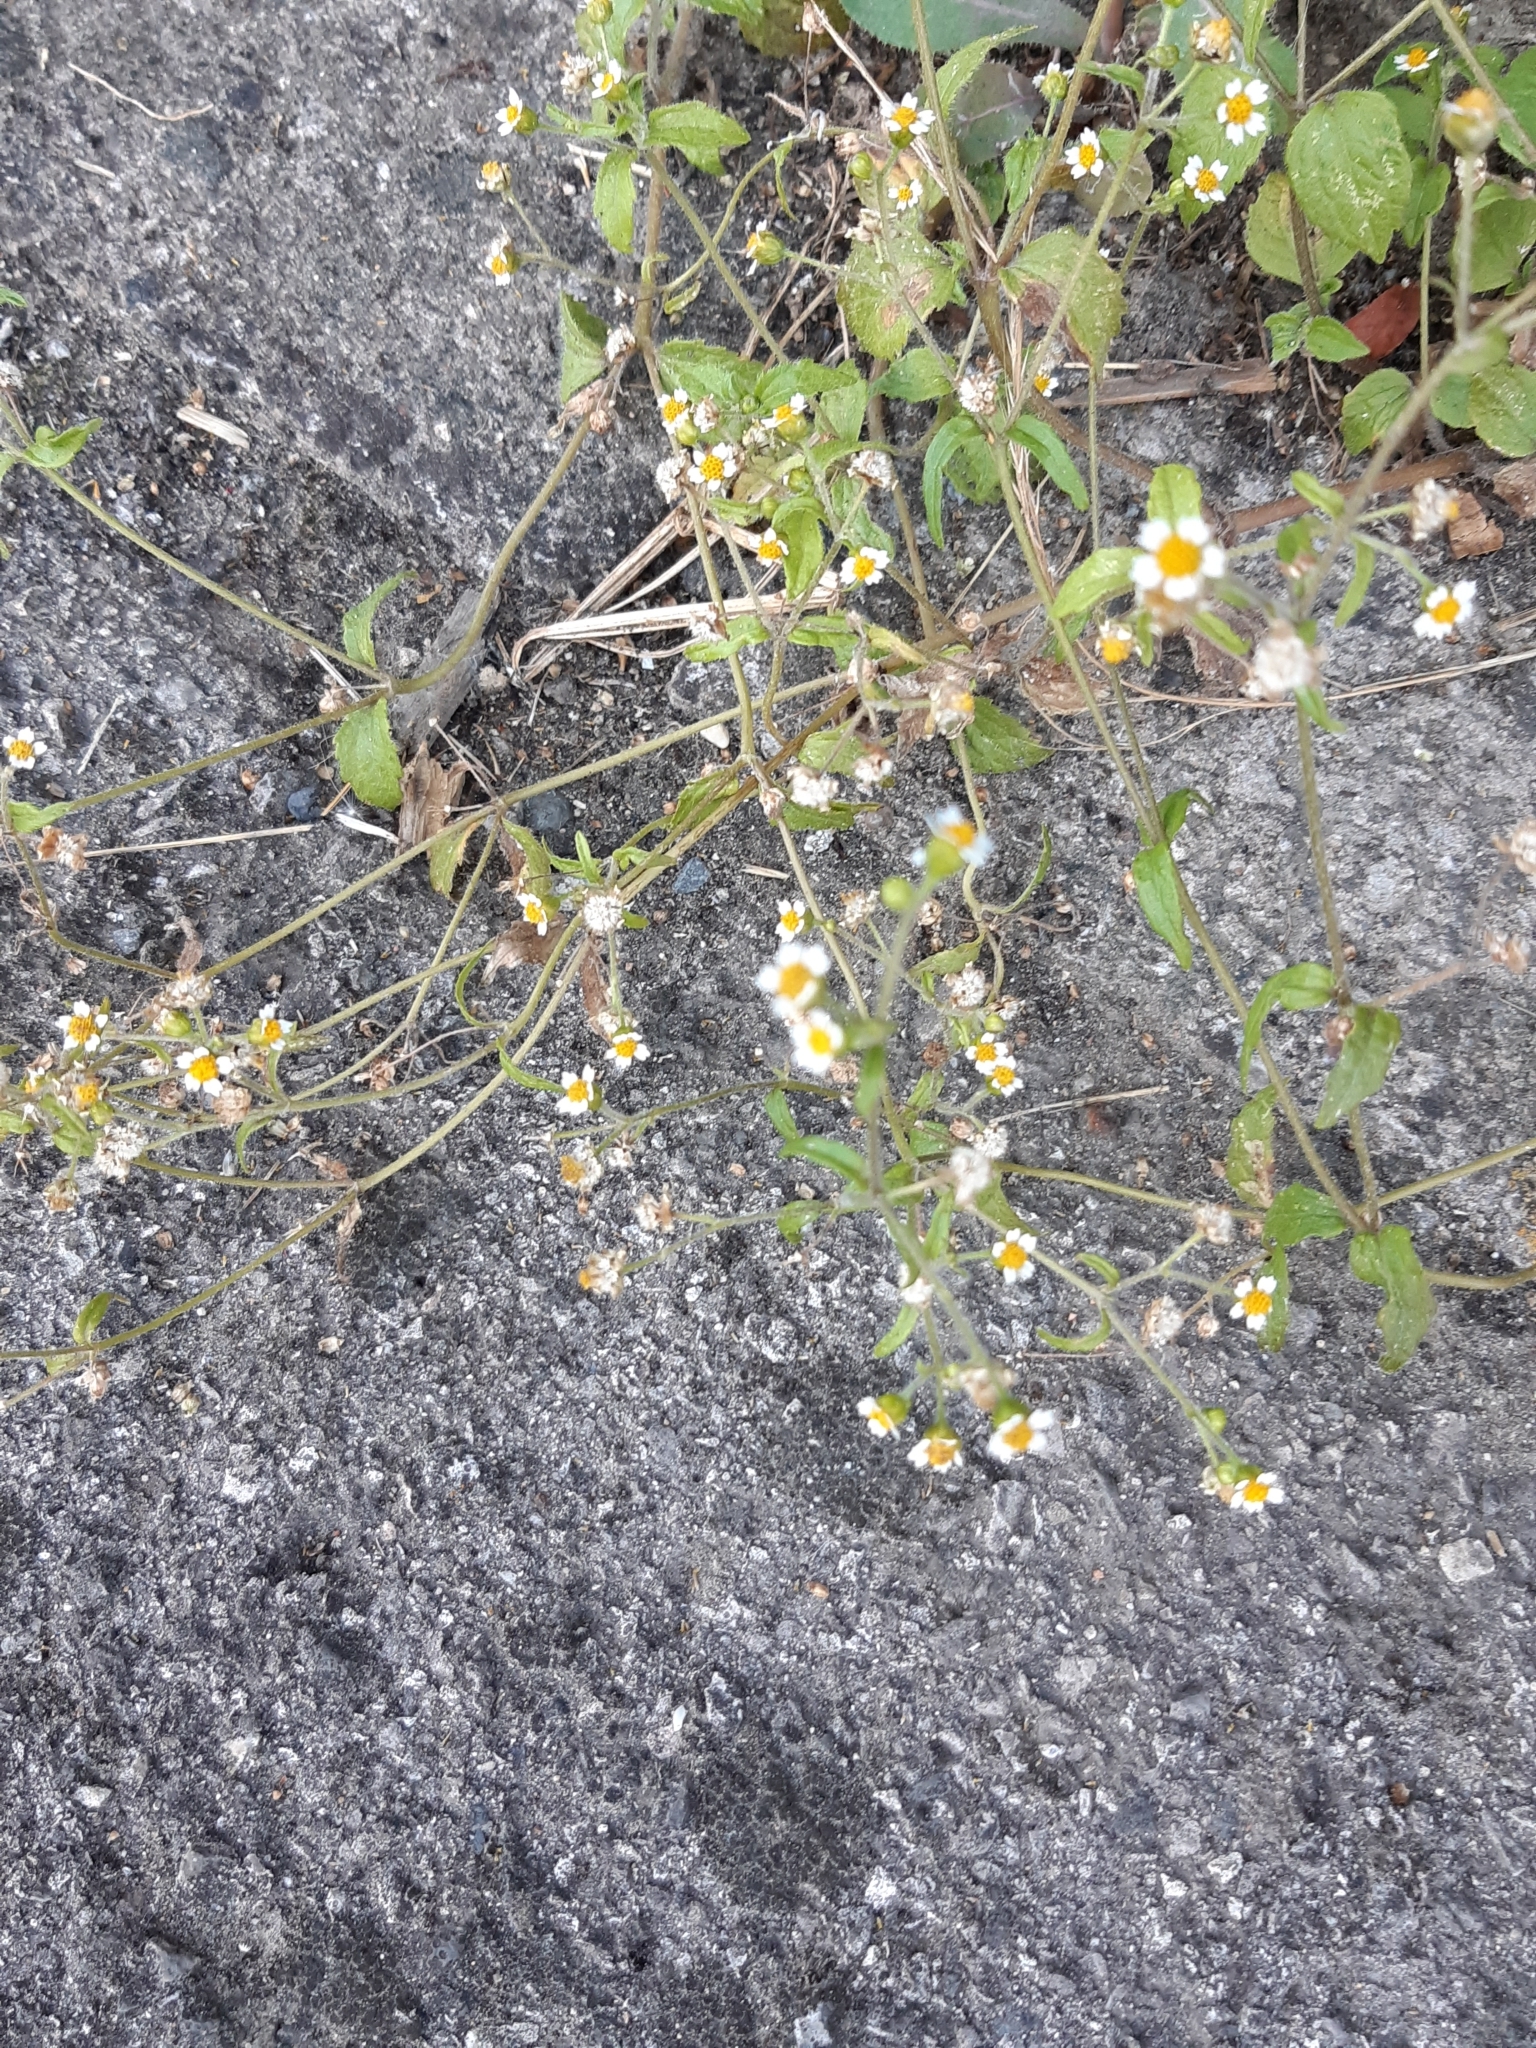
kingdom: Plantae
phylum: Tracheophyta
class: Magnoliopsida
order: Asterales
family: Asteraceae
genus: Galinsoga
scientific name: Galinsoga quadriradiata
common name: Shaggy soldier
